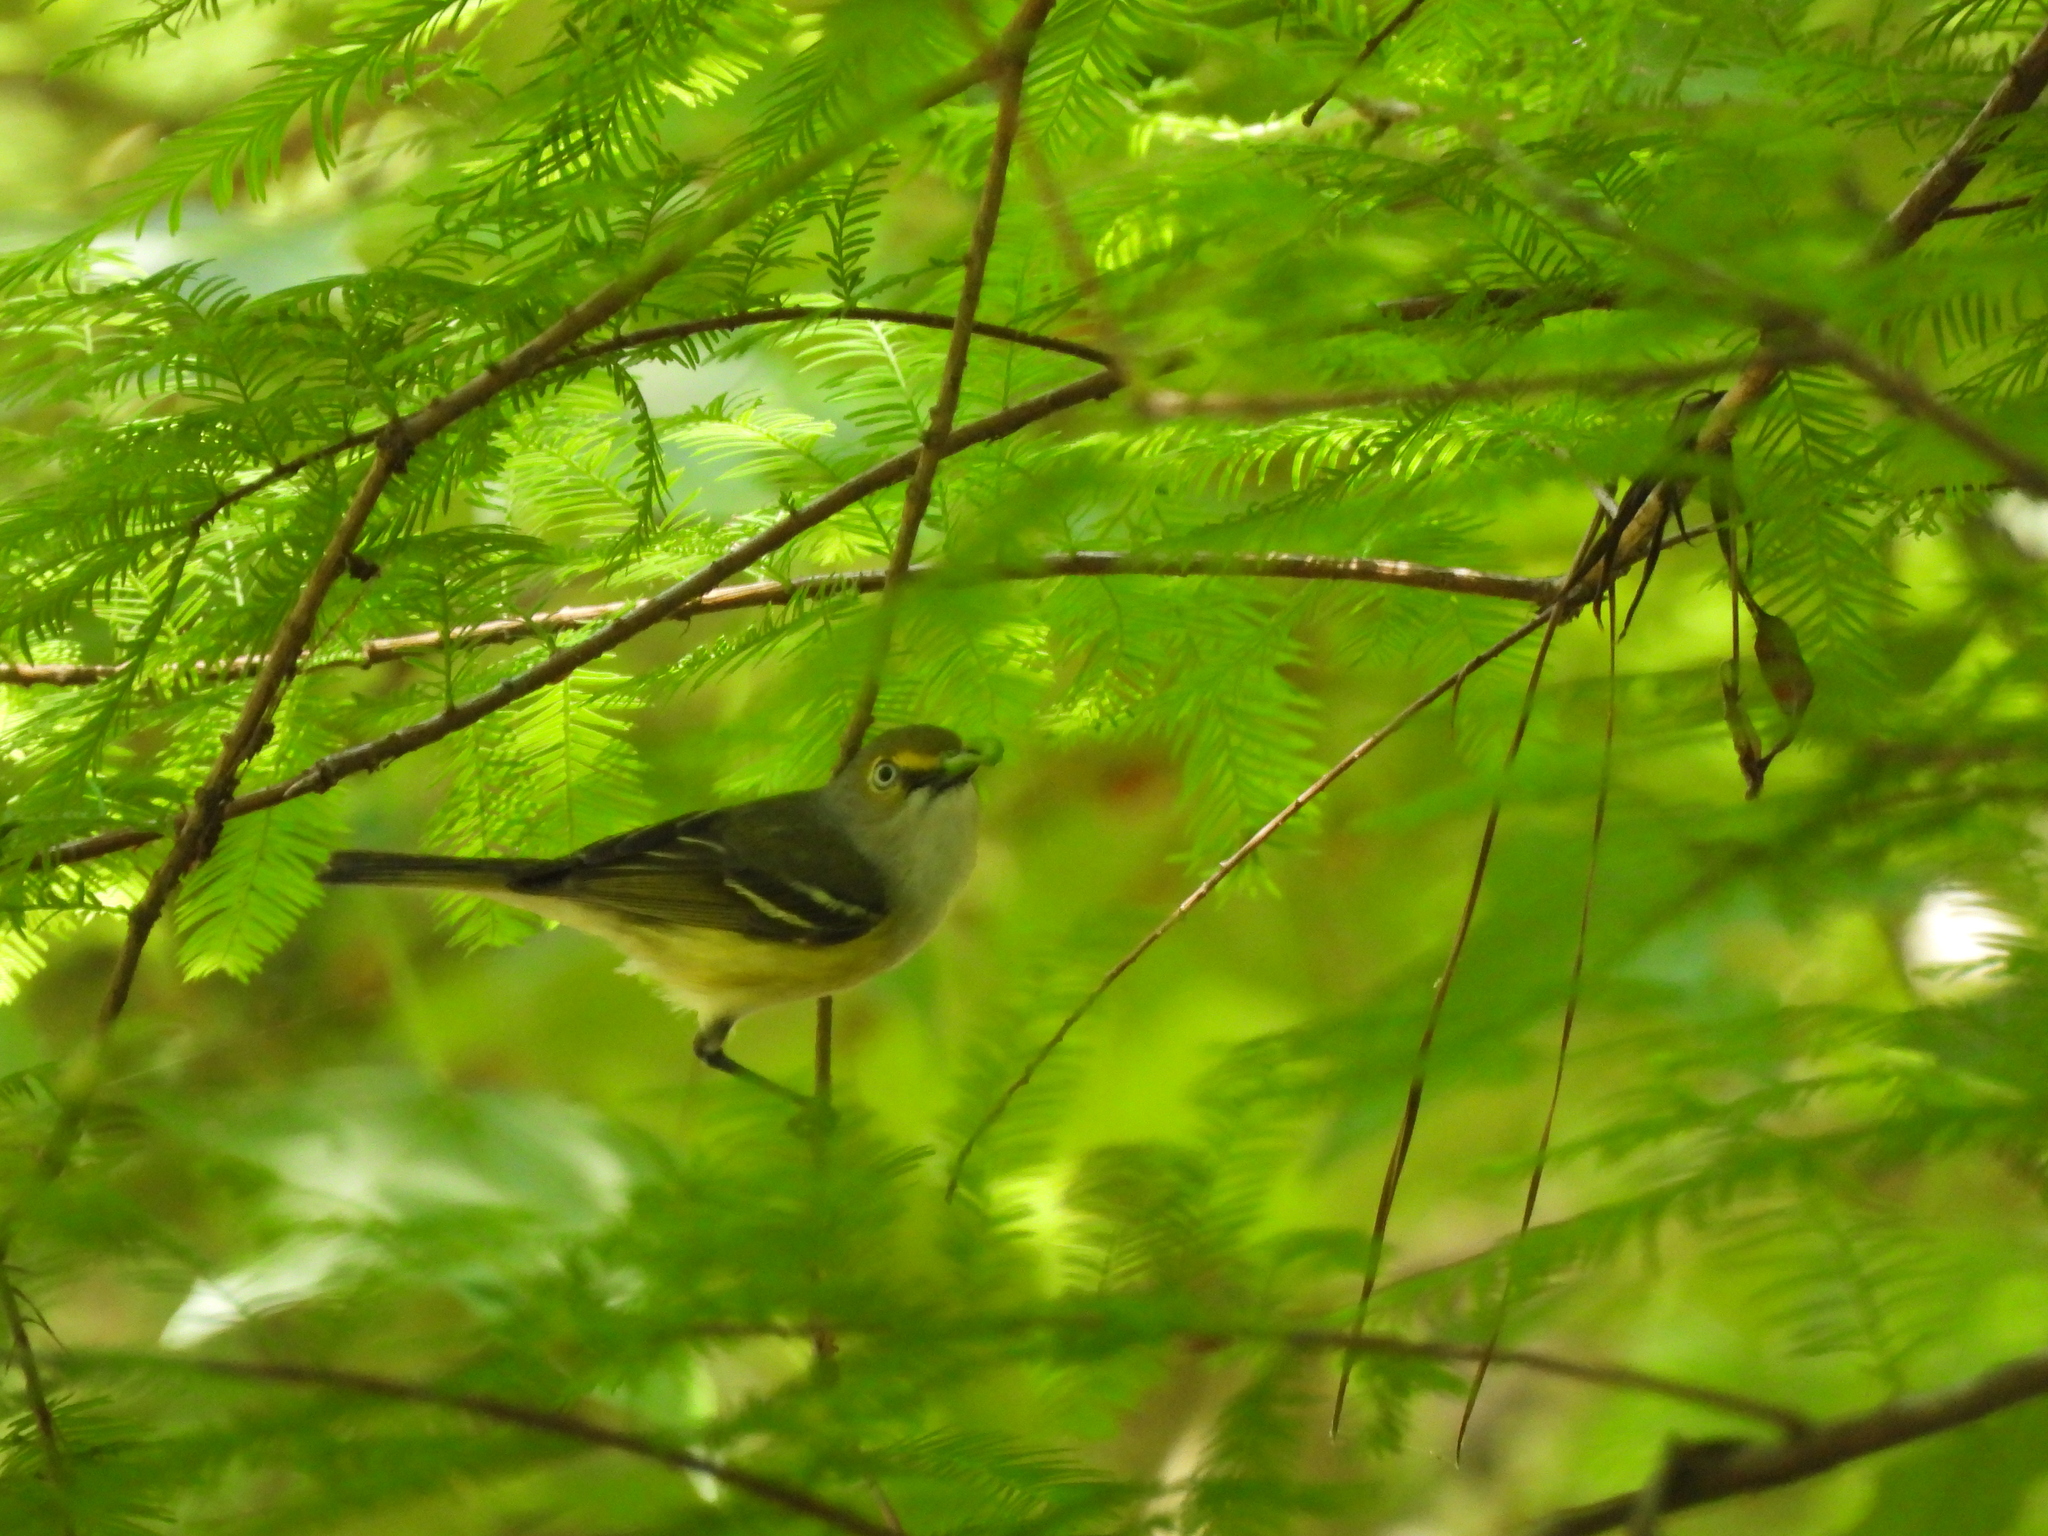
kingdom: Animalia
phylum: Chordata
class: Aves
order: Passeriformes
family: Vireonidae
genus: Vireo
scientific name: Vireo griseus
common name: White-eyed vireo
